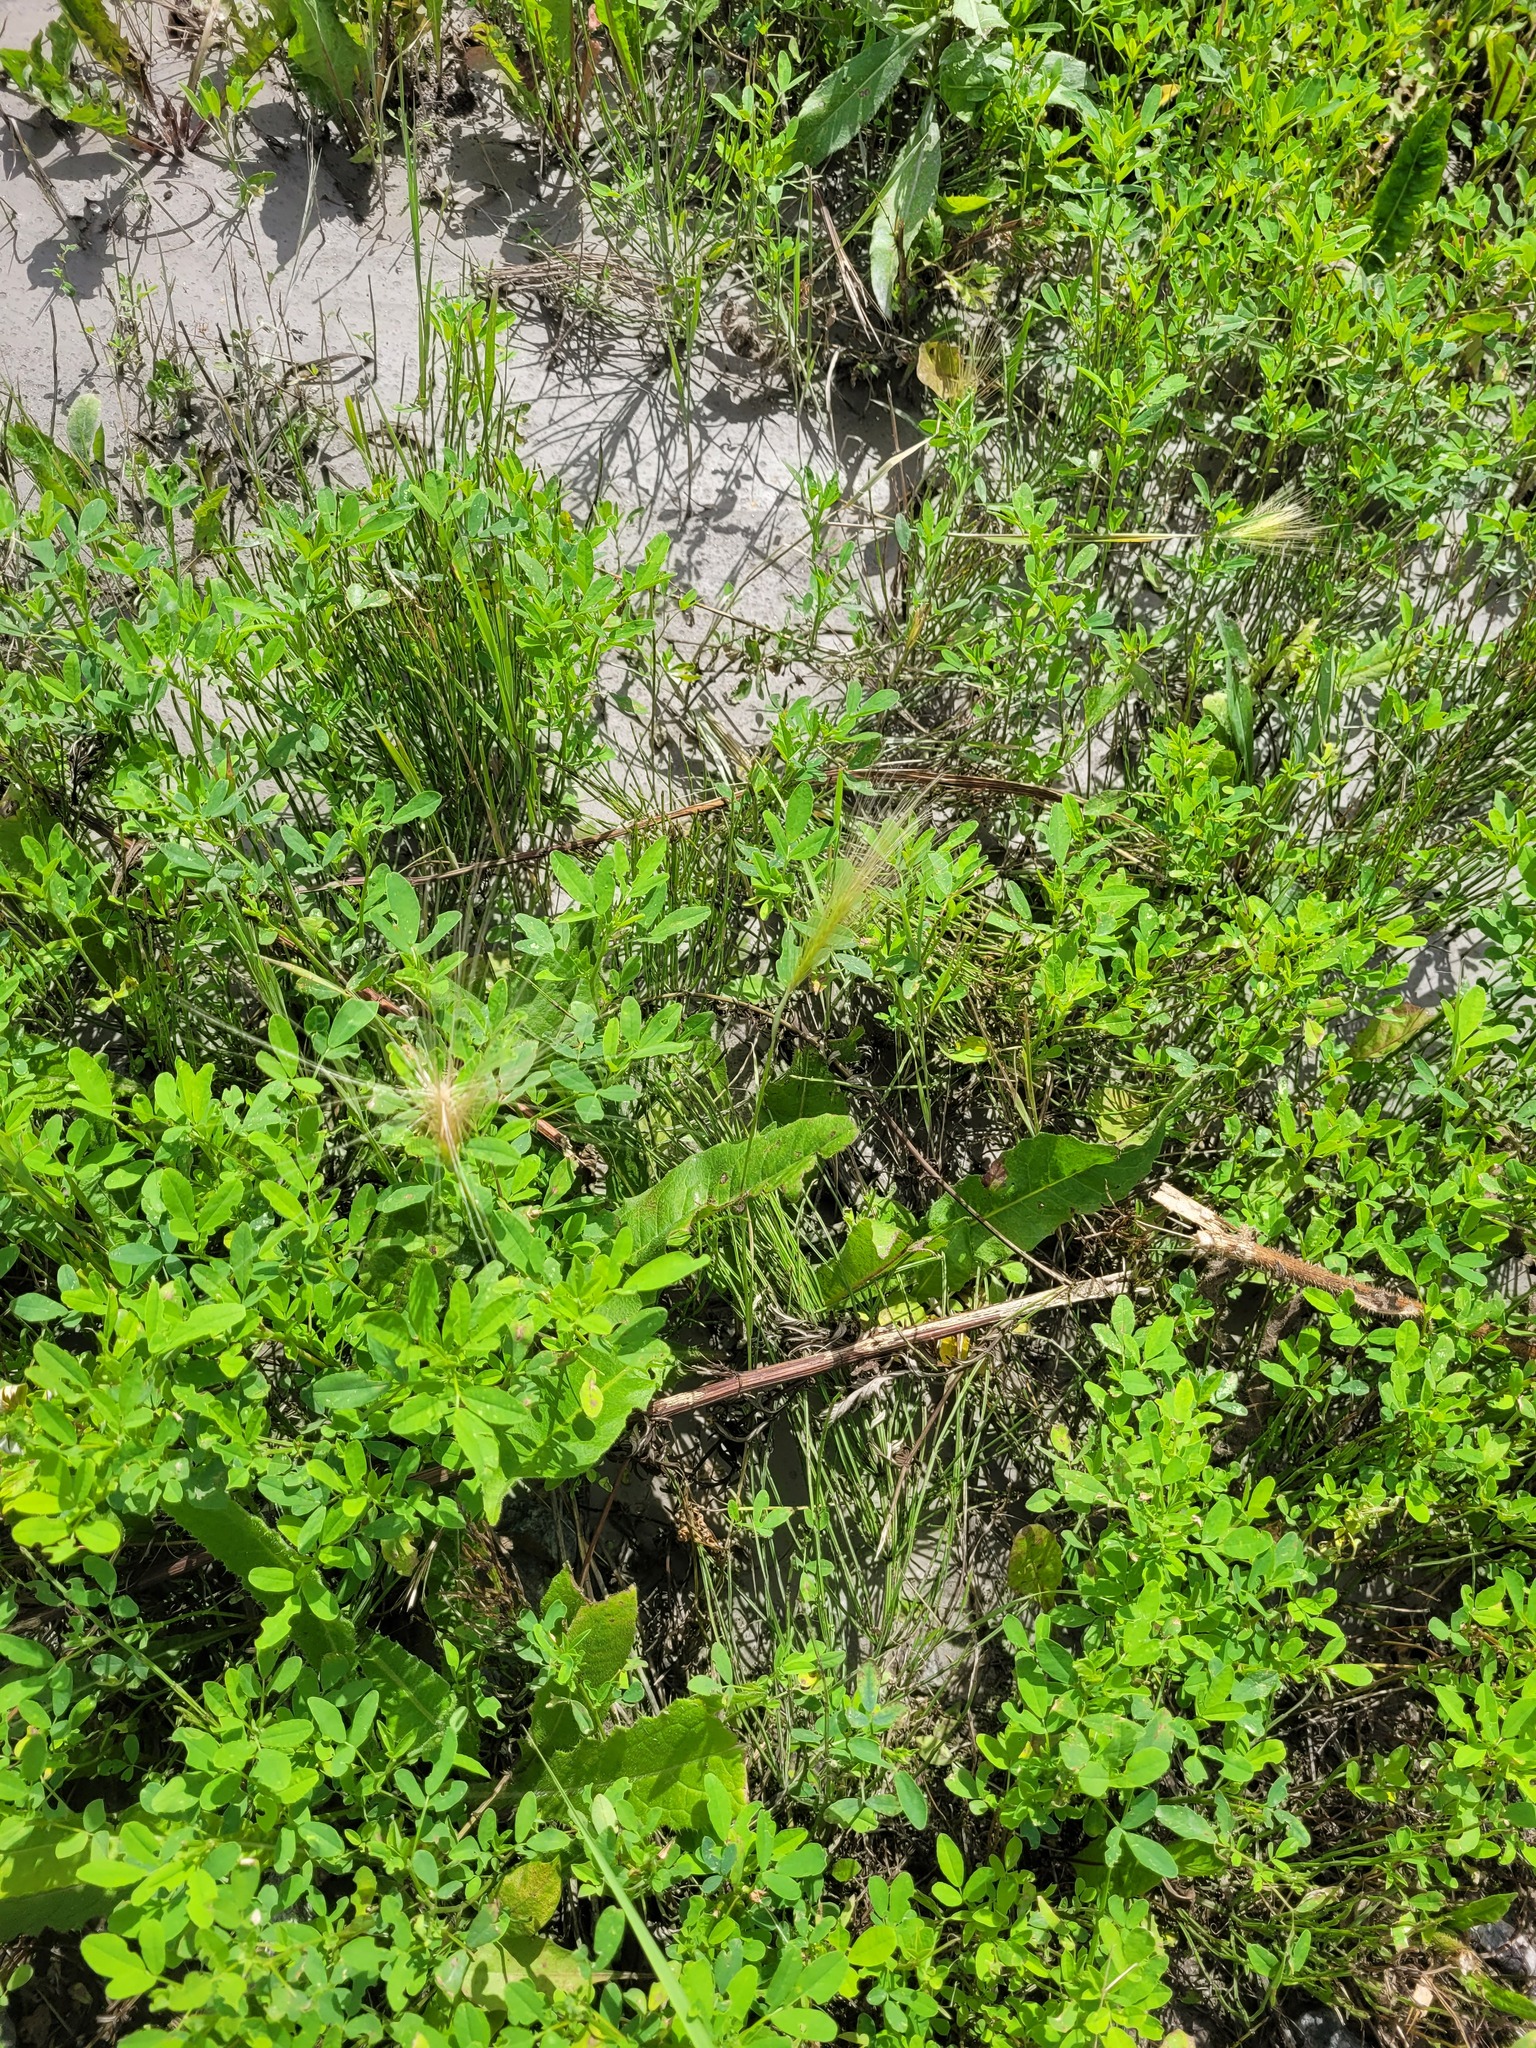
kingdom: Plantae
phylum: Tracheophyta
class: Liliopsida
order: Poales
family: Poaceae
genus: Hordeum
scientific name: Hordeum jubatum
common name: Foxtail barley
